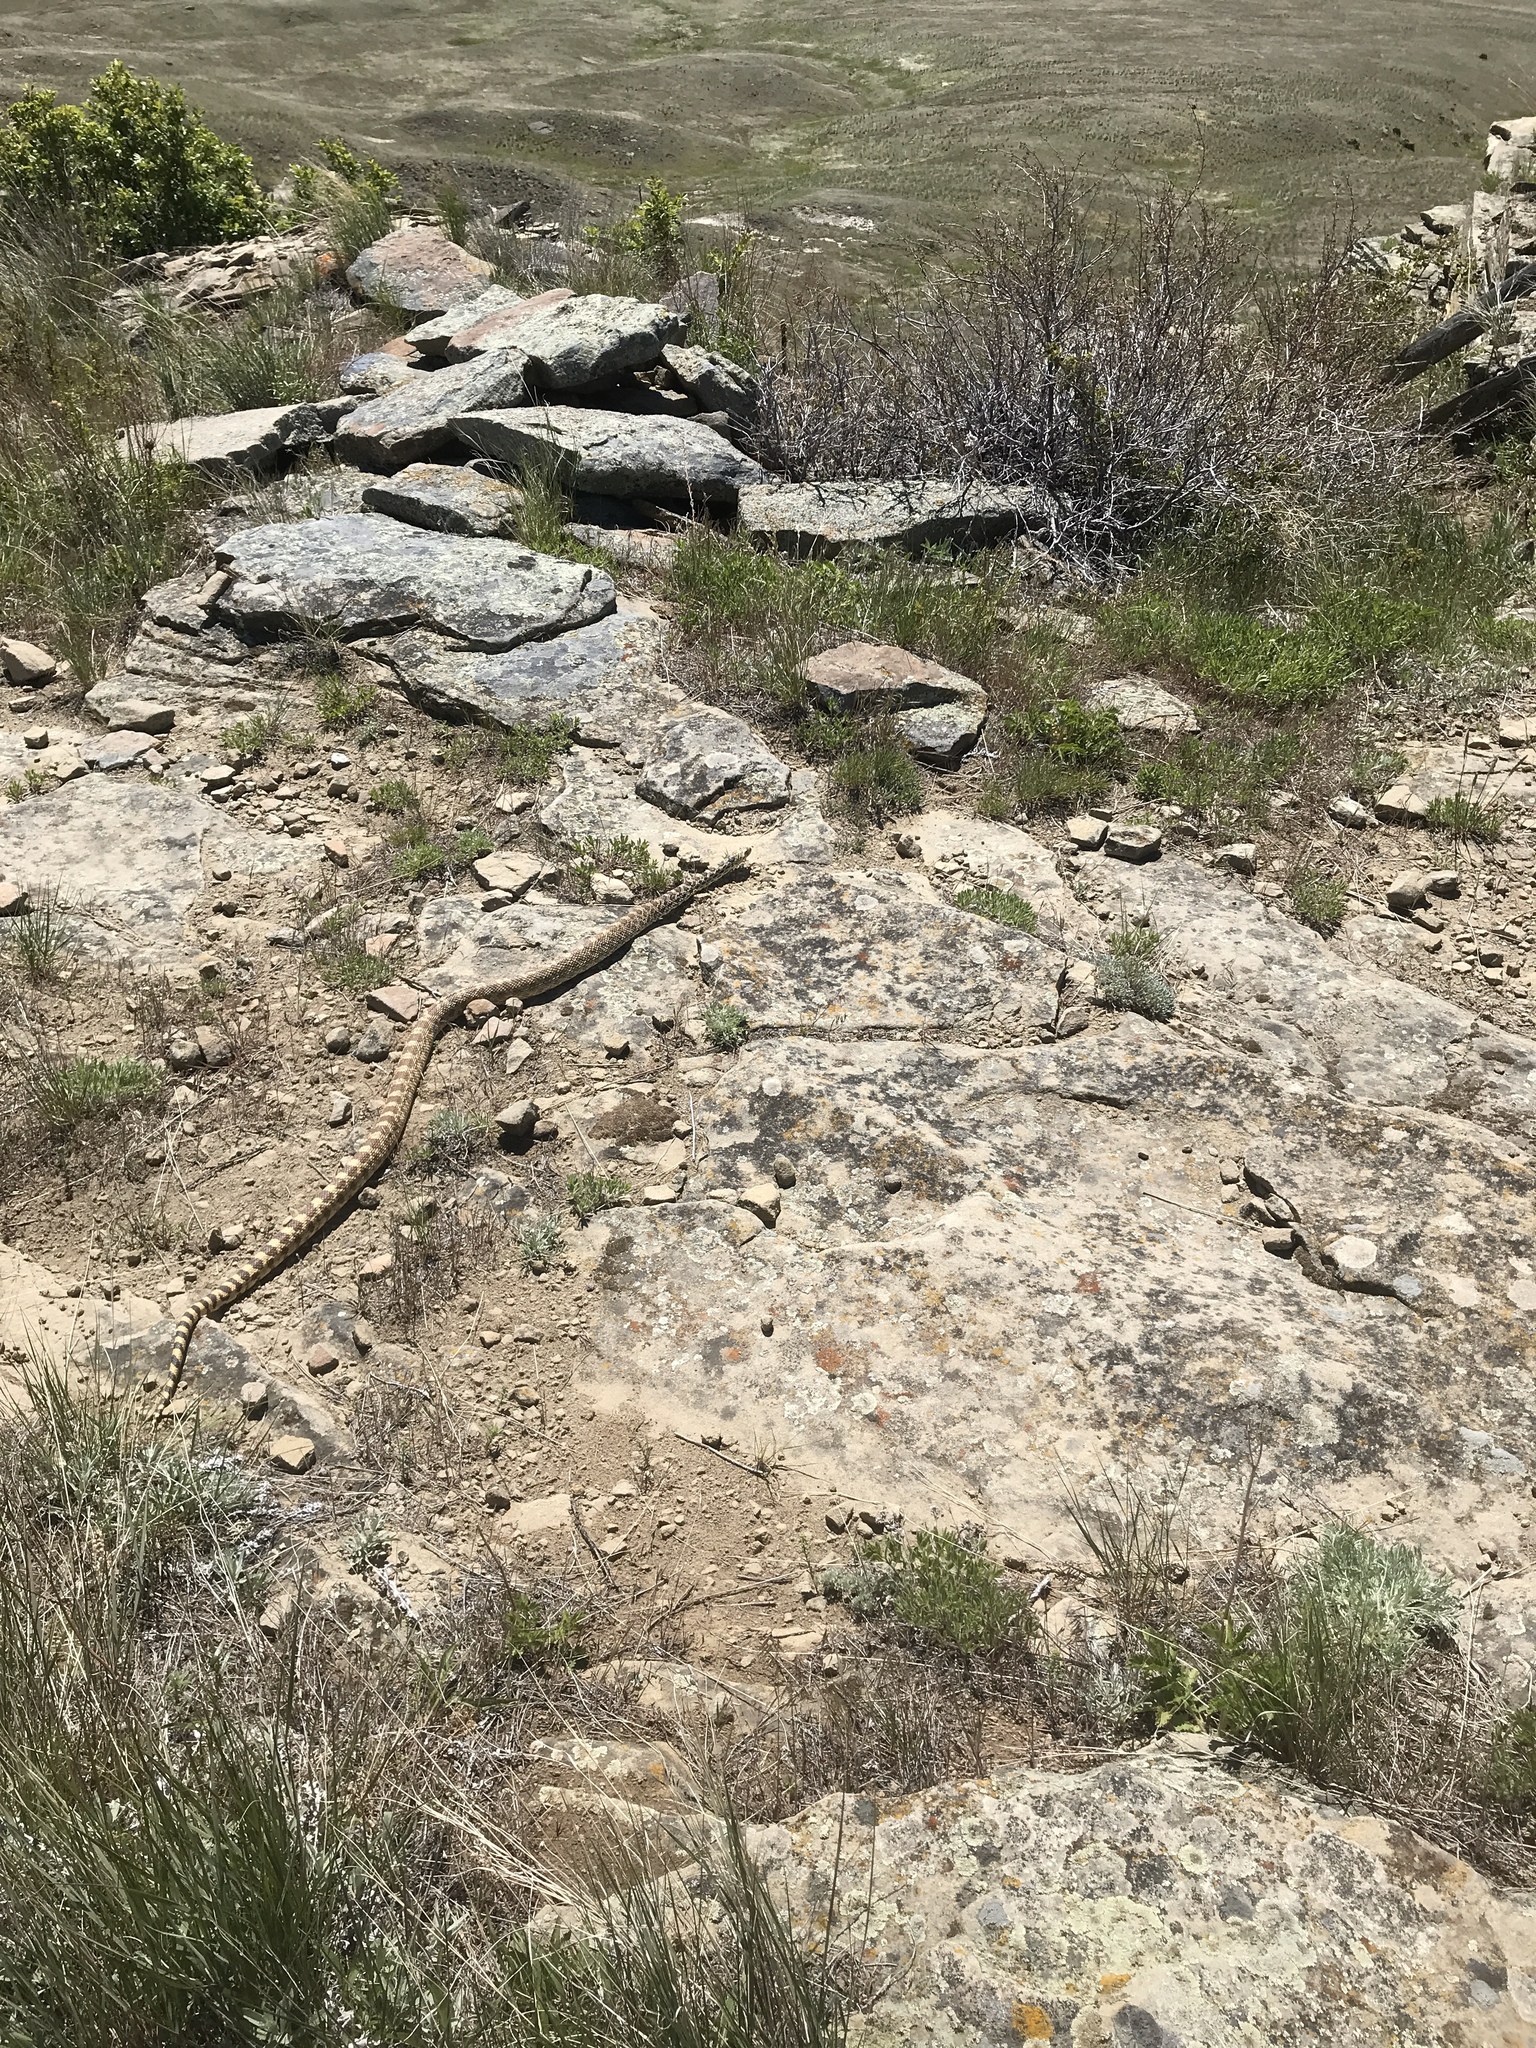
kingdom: Animalia
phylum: Chordata
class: Squamata
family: Colubridae
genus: Pituophis
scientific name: Pituophis catenifer
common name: Gopher snake
